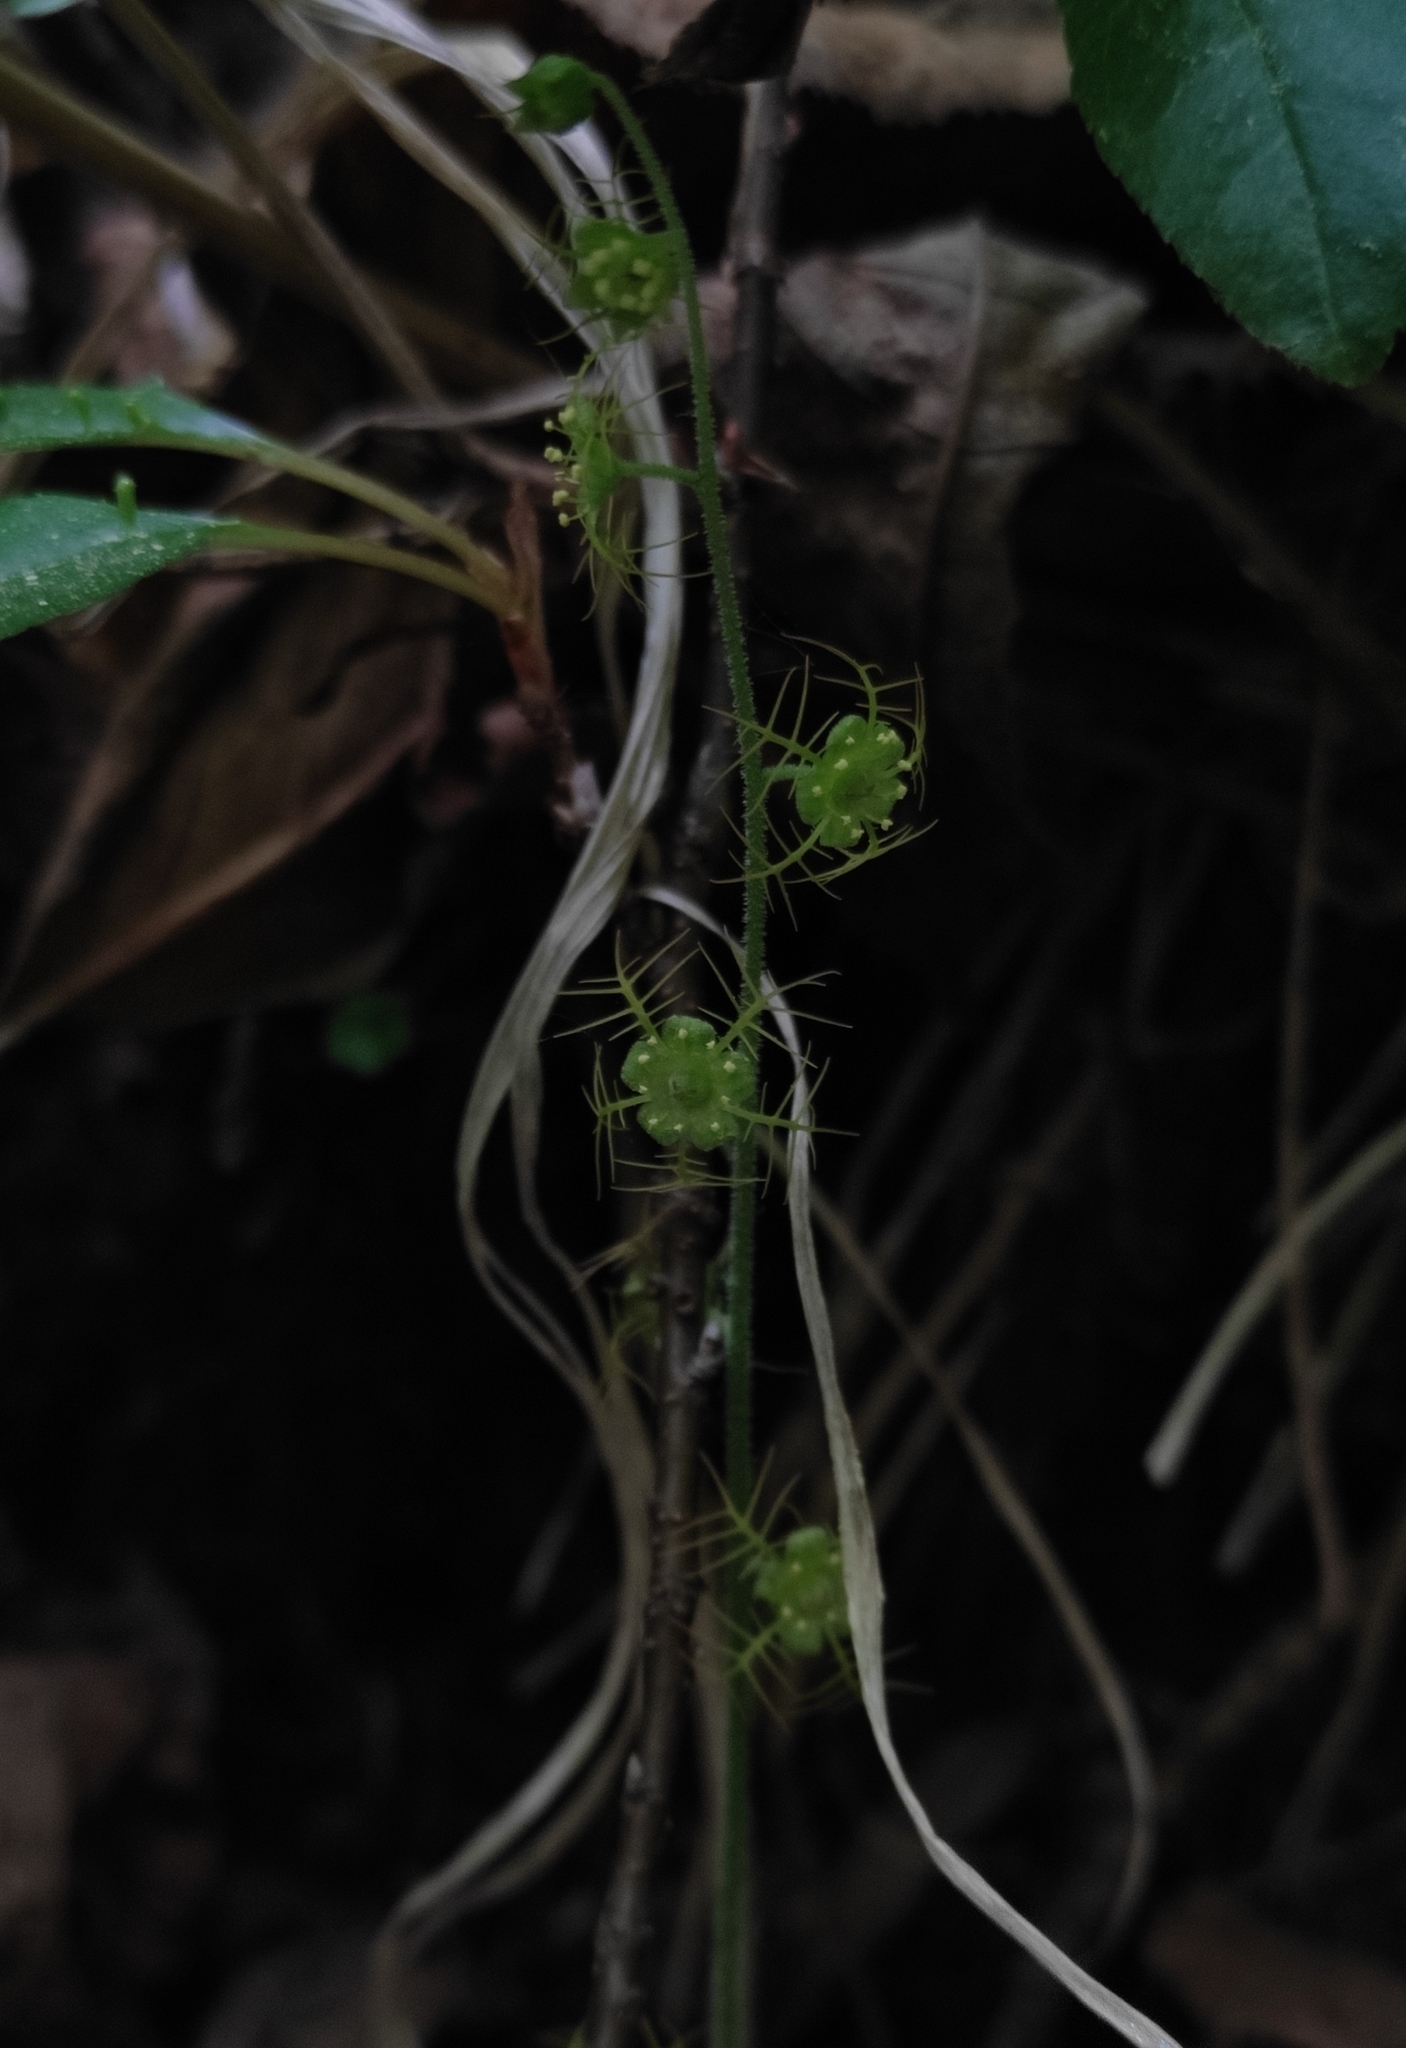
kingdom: Plantae
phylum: Tracheophyta
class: Magnoliopsida
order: Saxifragales
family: Saxifragaceae
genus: Mitella
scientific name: Mitella nuda
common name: Bare-stemmed bishop's-cap
